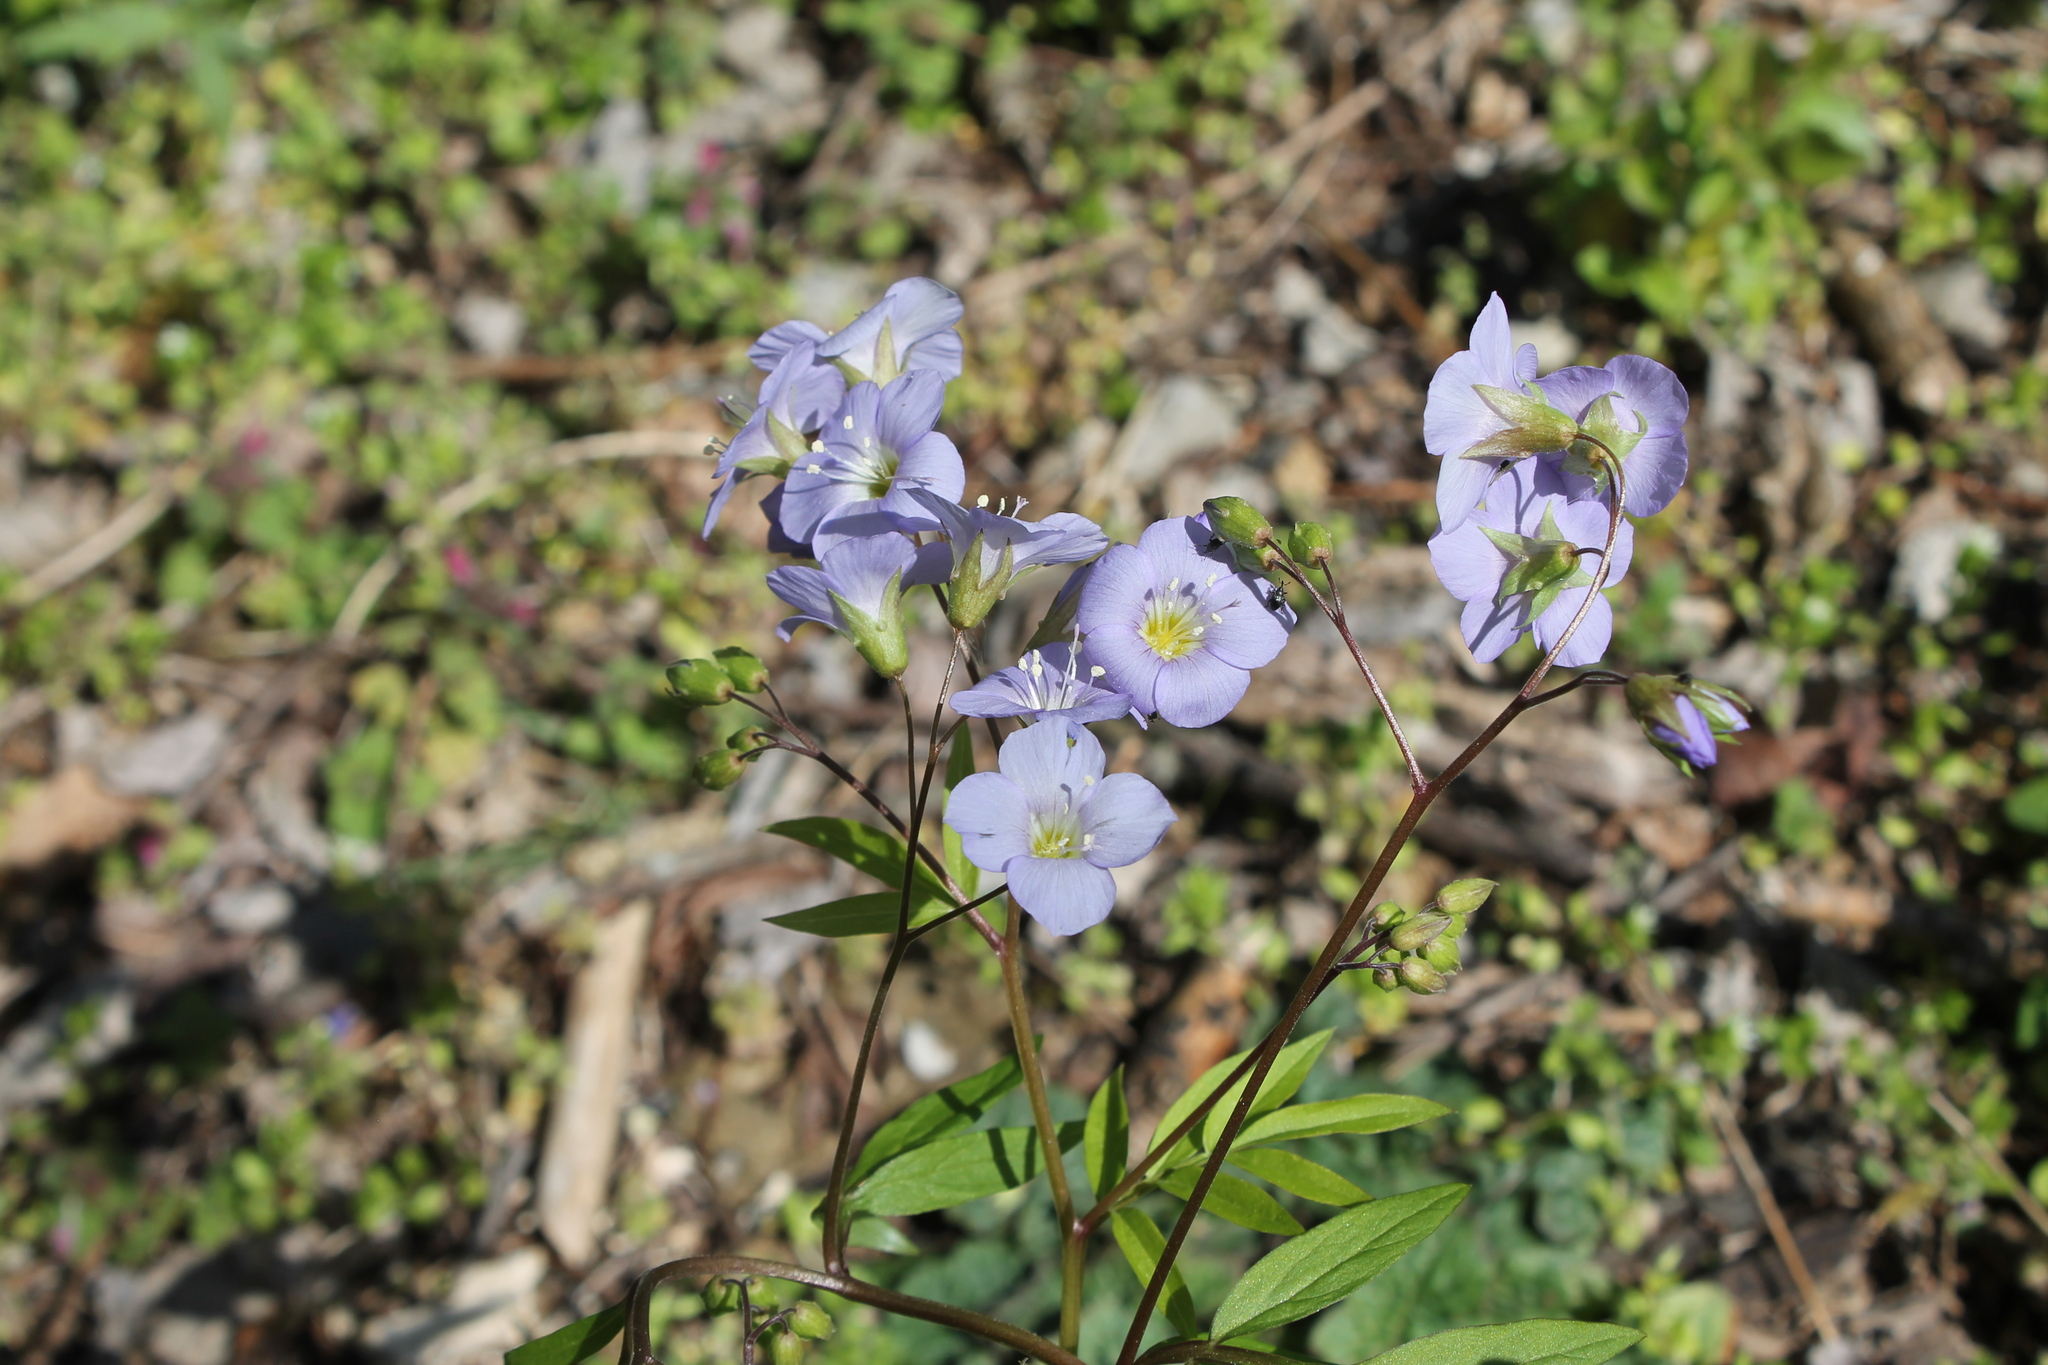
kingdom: Plantae
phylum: Tracheophyta
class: Magnoliopsida
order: Ericales
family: Polemoniaceae
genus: Polemonium
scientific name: Polemonium reptans
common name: Creeping jacob's-ladder
